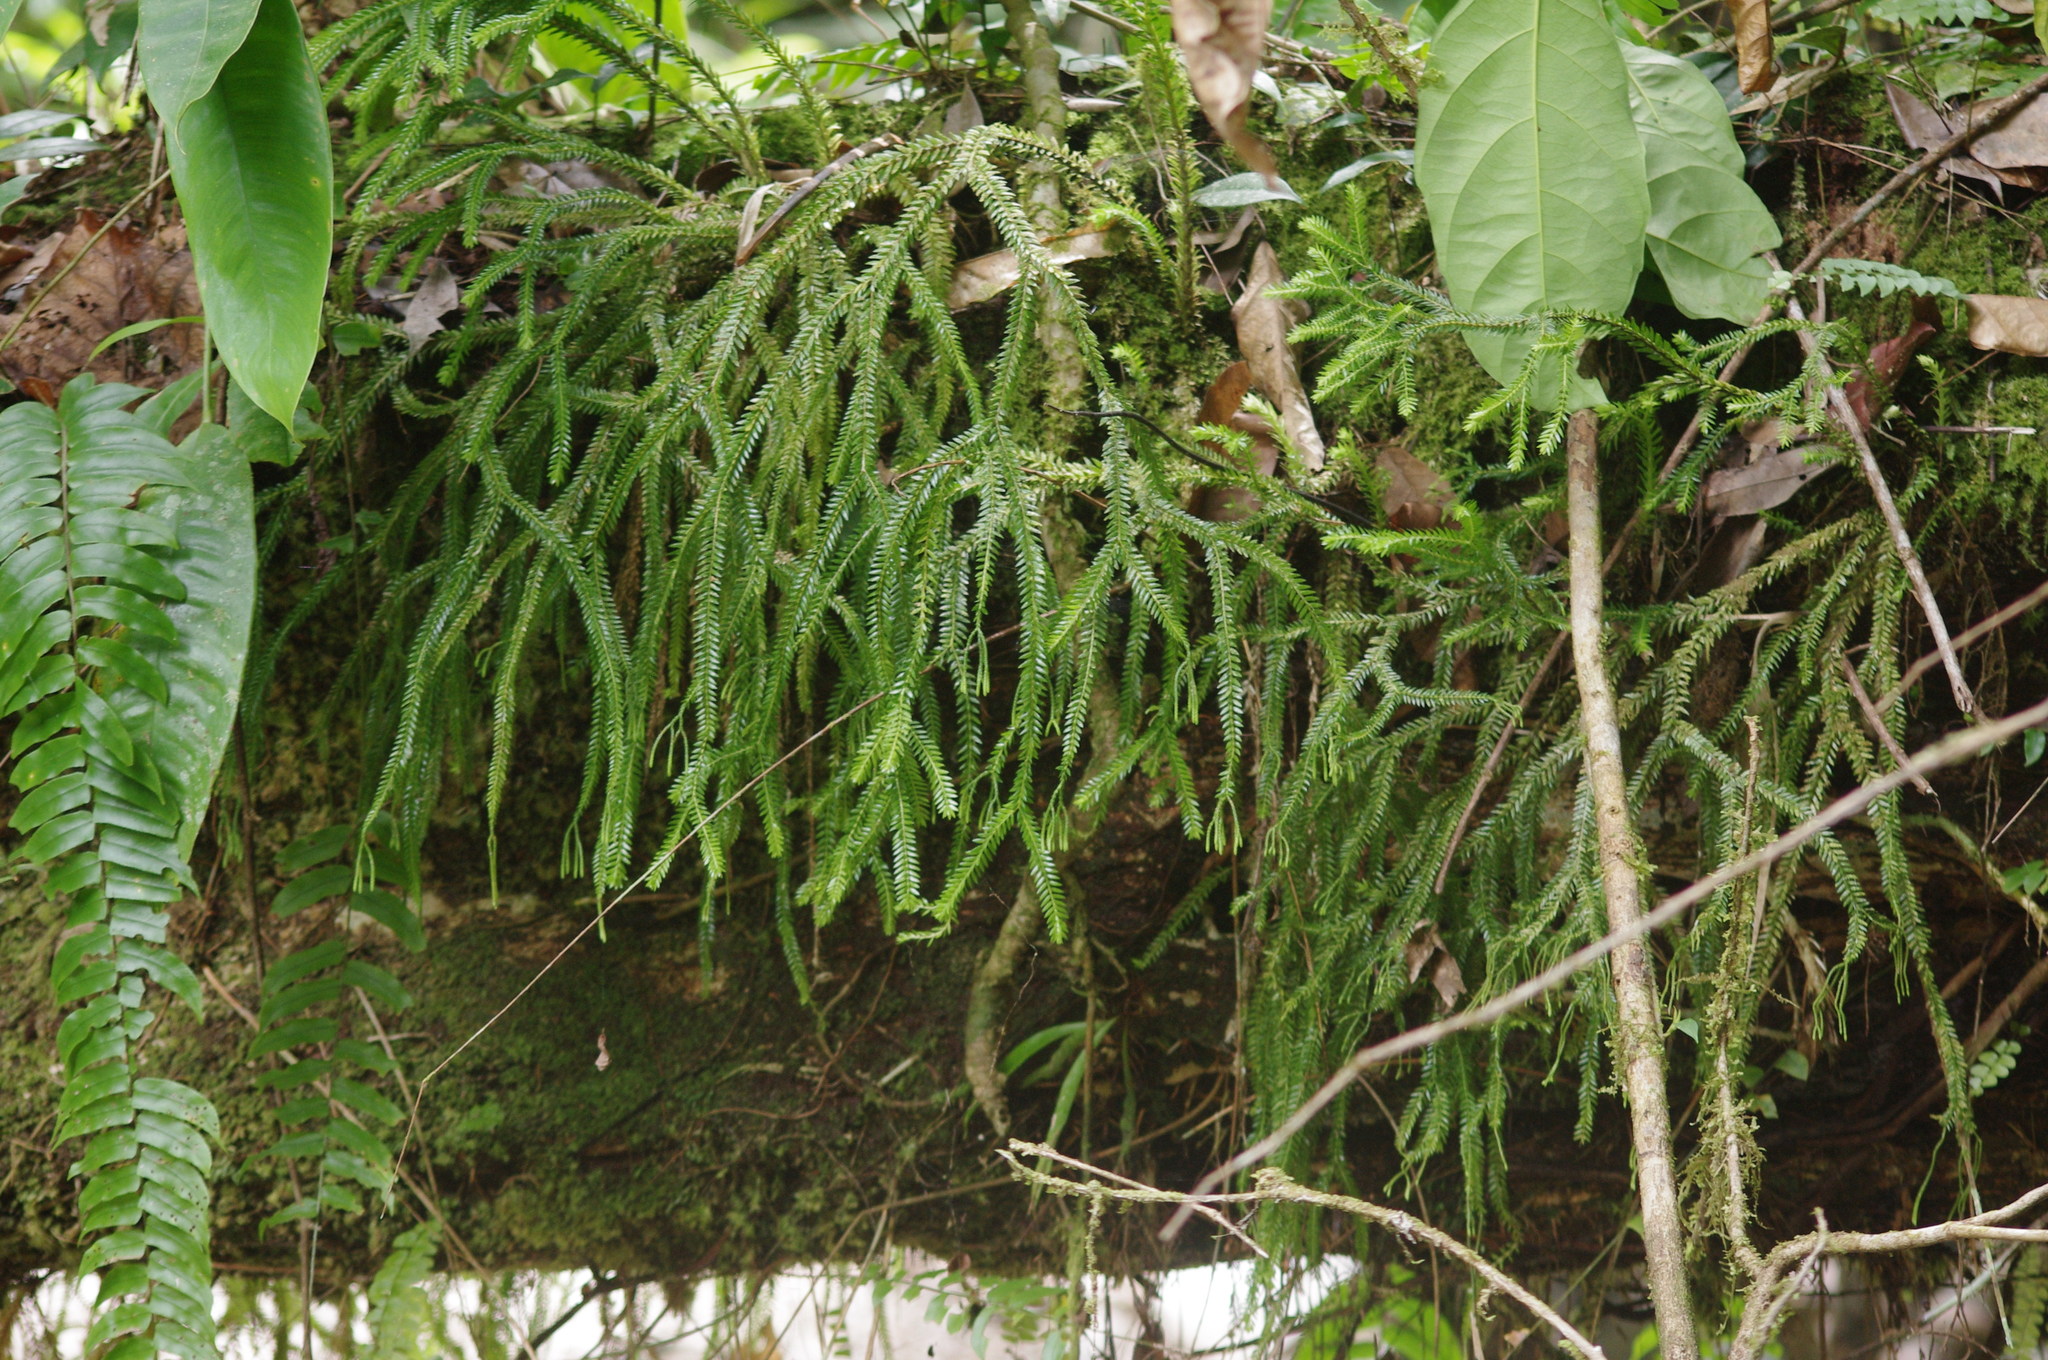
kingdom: Plantae
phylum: Tracheophyta
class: Lycopodiopsida
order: Lycopodiales
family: Lycopodiaceae
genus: Phlegmariurus
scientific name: Phlegmariurus phlegmarioides
